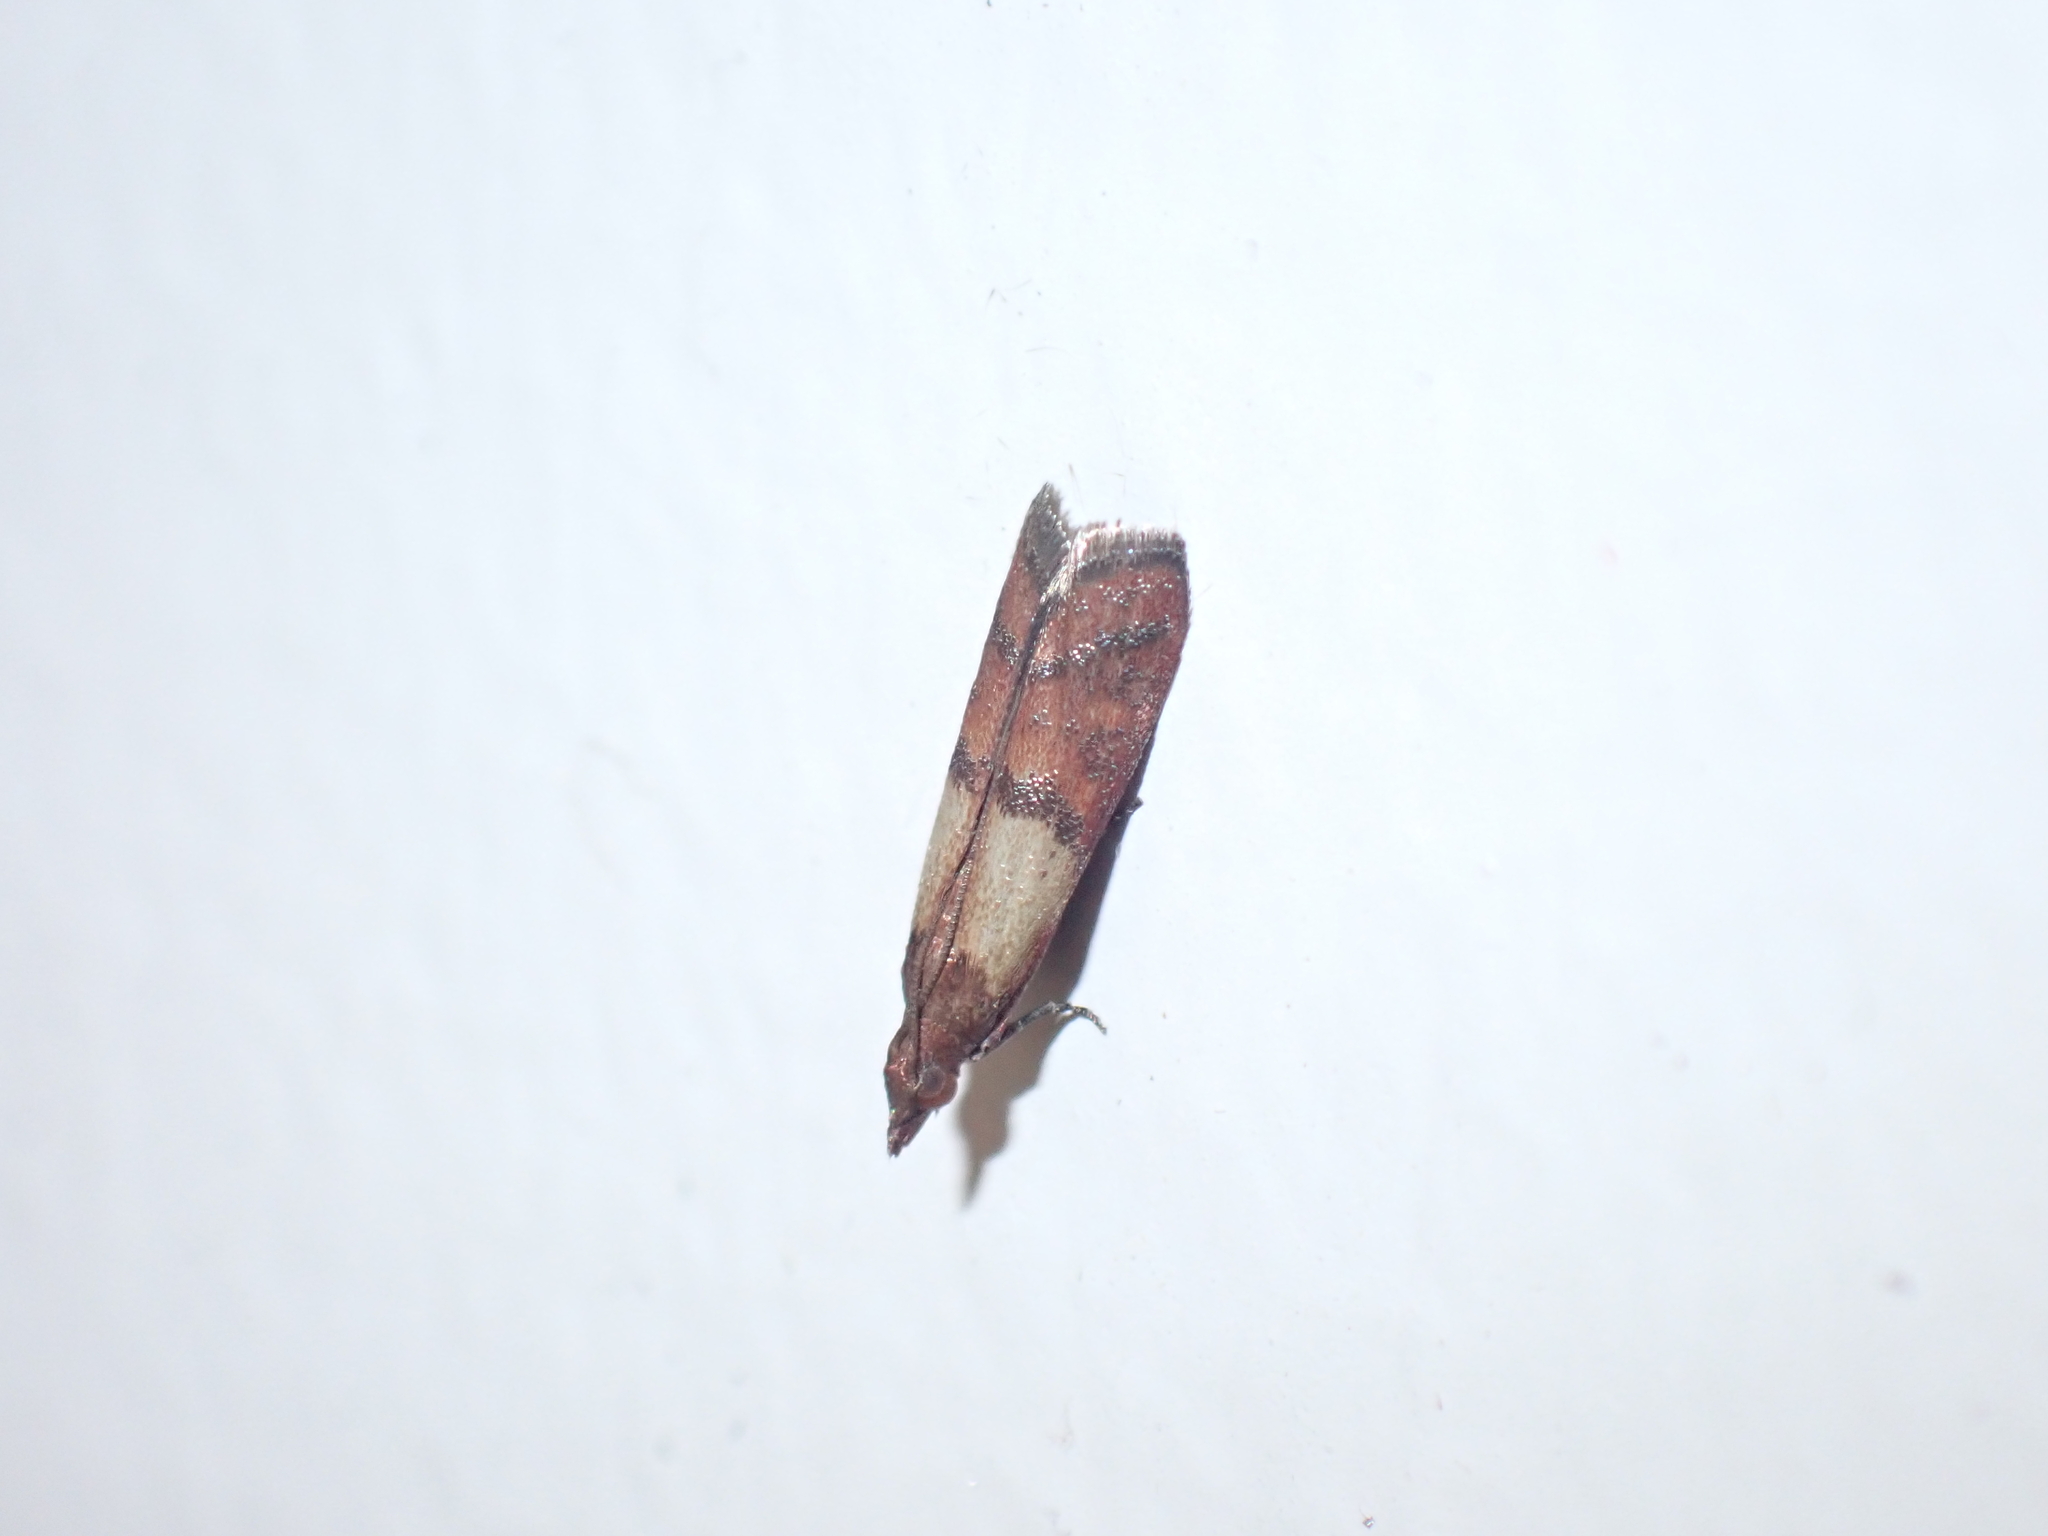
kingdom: Animalia
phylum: Arthropoda
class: Insecta
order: Lepidoptera
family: Pyralidae
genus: Plodia
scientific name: Plodia interpunctella
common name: Indian meal moth
